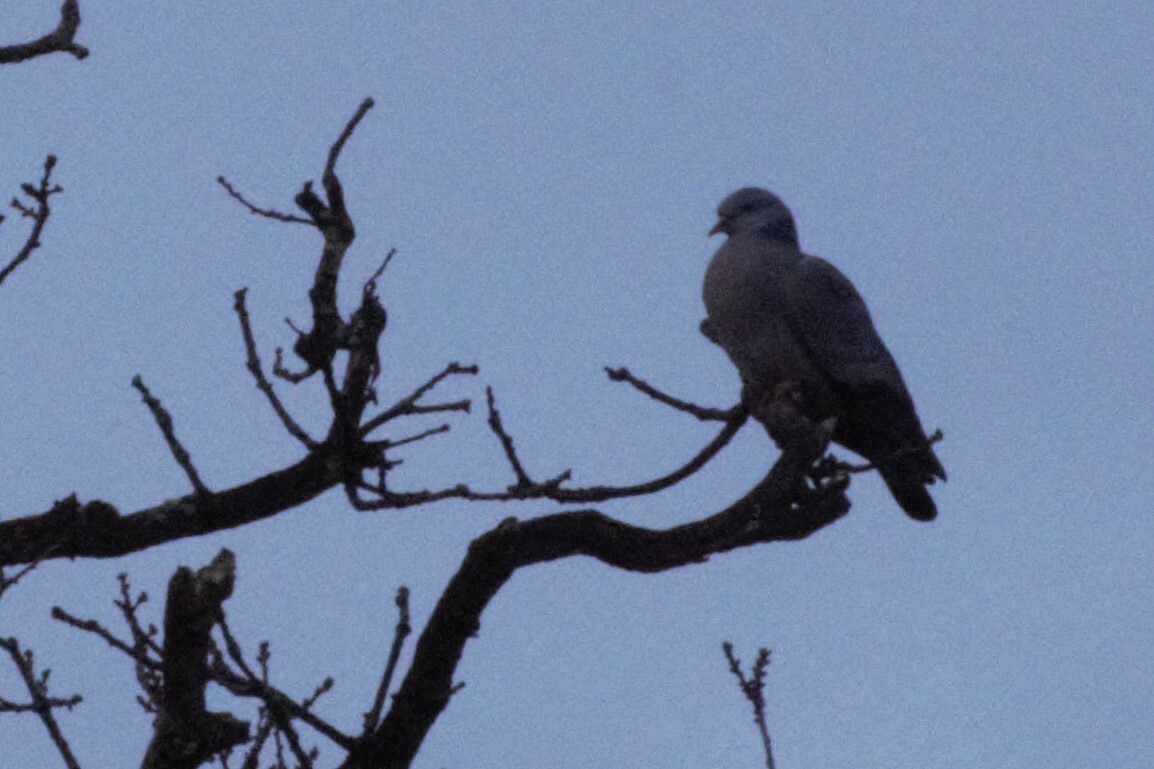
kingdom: Animalia
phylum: Chordata
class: Aves
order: Columbiformes
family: Columbidae
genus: Columba
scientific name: Columba palumbus
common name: Common wood pigeon
